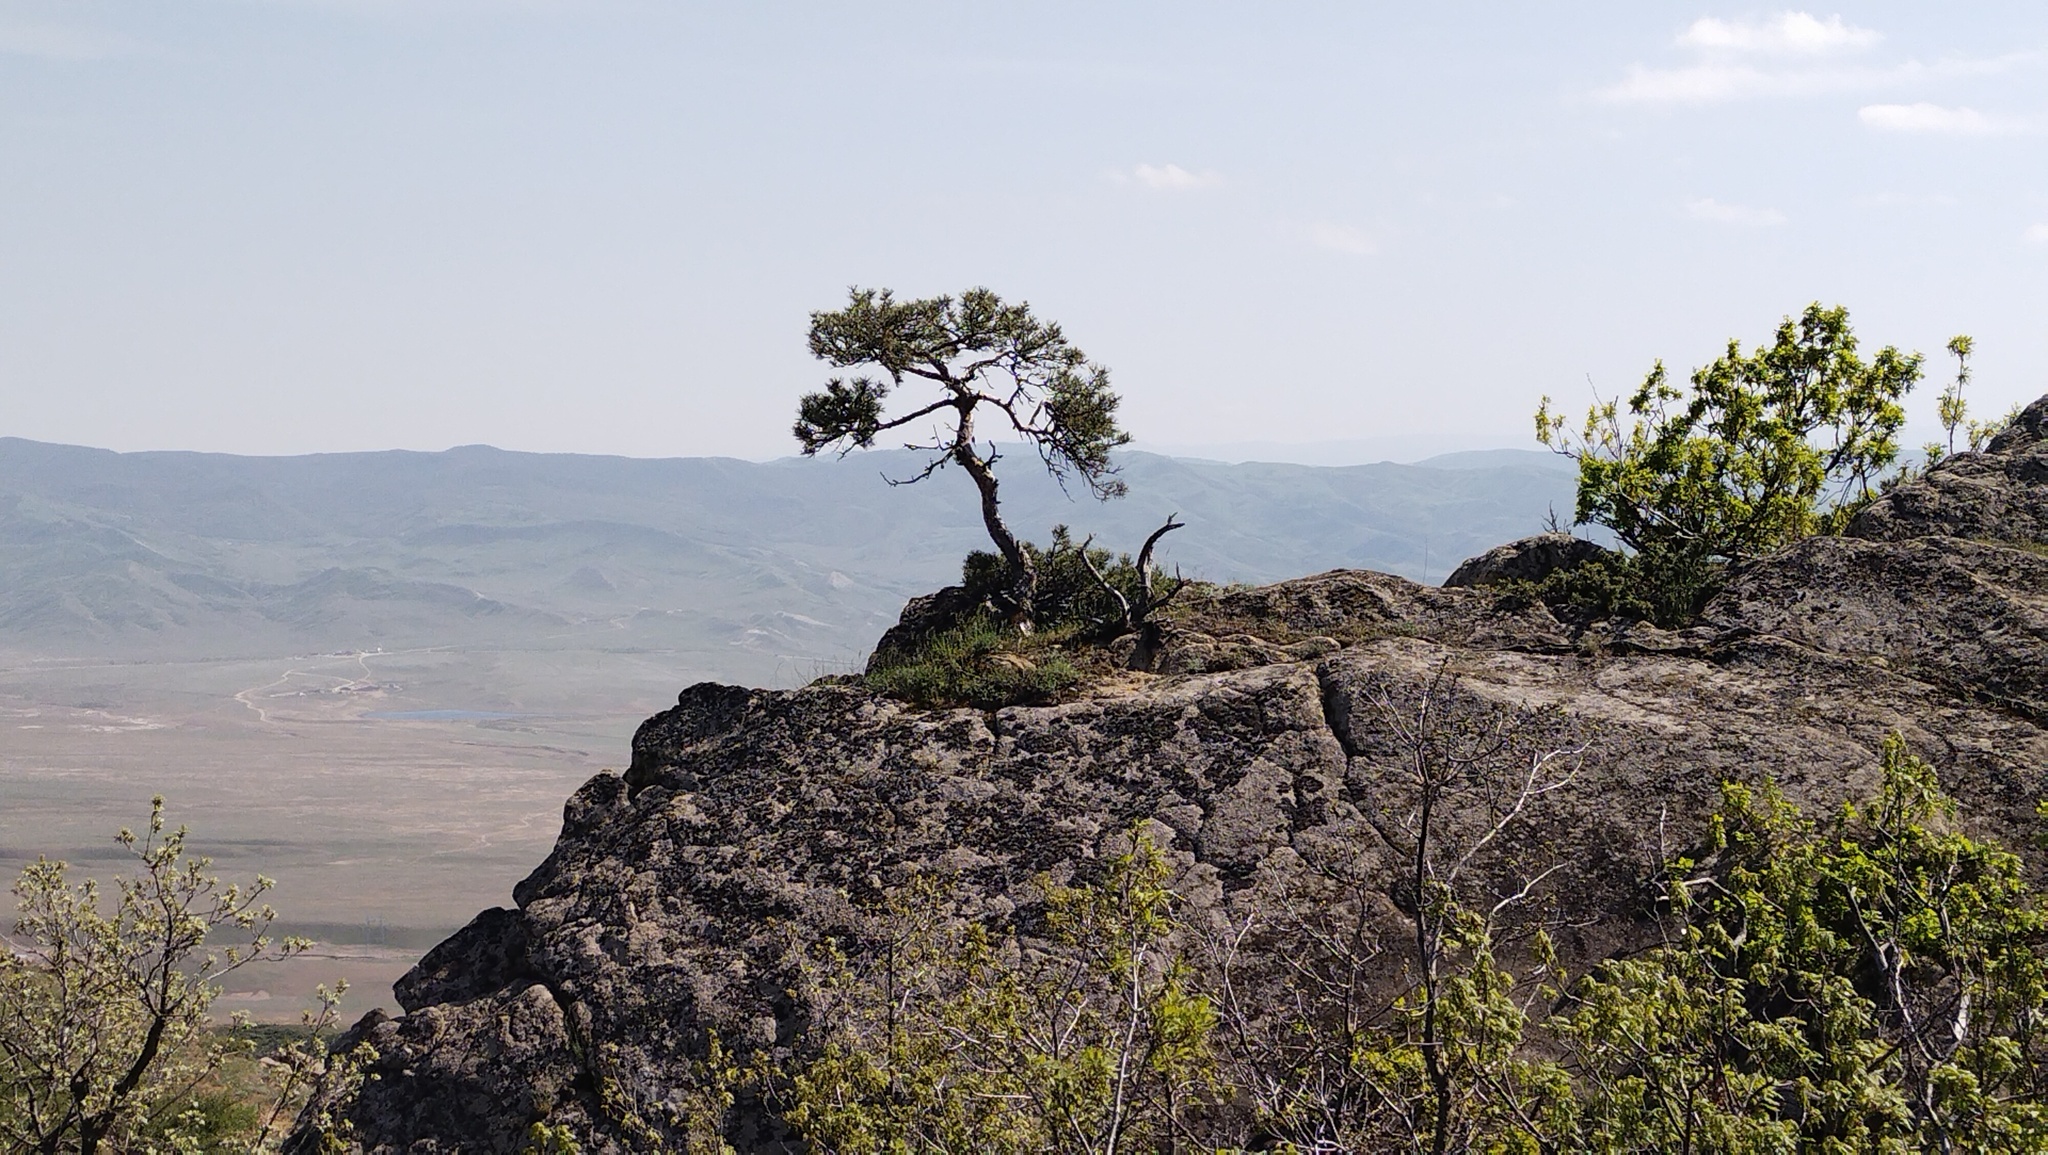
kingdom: Plantae
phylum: Tracheophyta
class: Pinopsida
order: Pinales
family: Pinaceae
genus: Pinus
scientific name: Pinus sylvestris
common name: Scots pine
